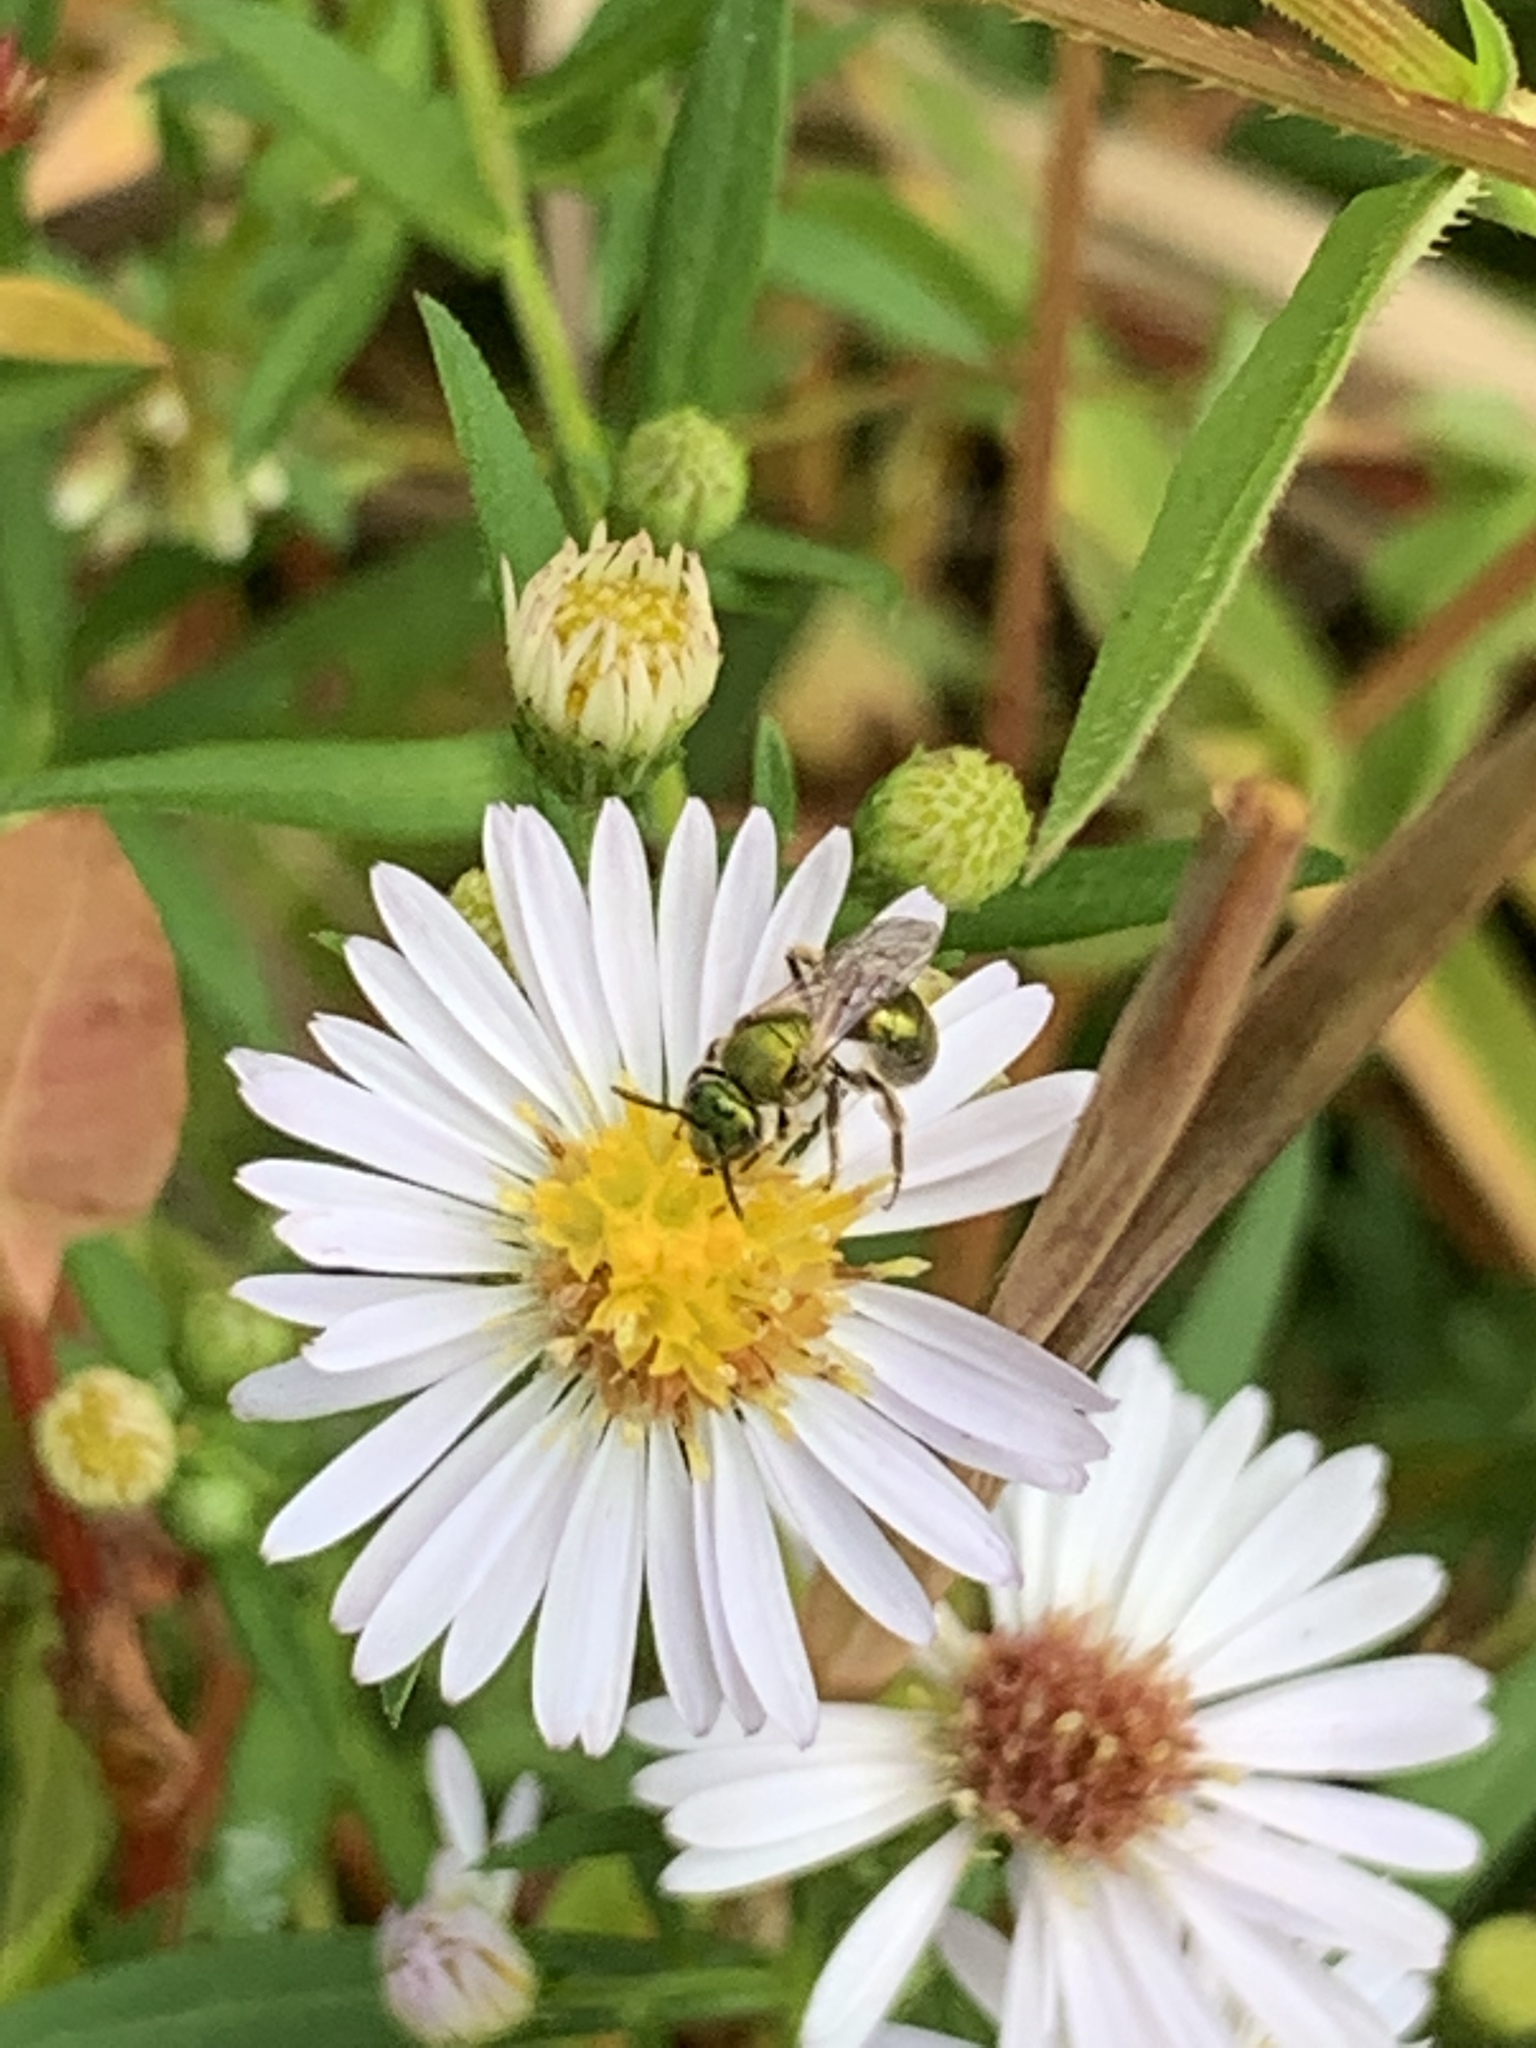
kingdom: Animalia
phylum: Arthropoda
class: Insecta
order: Hymenoptera
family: Halictidae
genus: Augochlorella
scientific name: Augochlorella aurata
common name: Golden sweat bee
